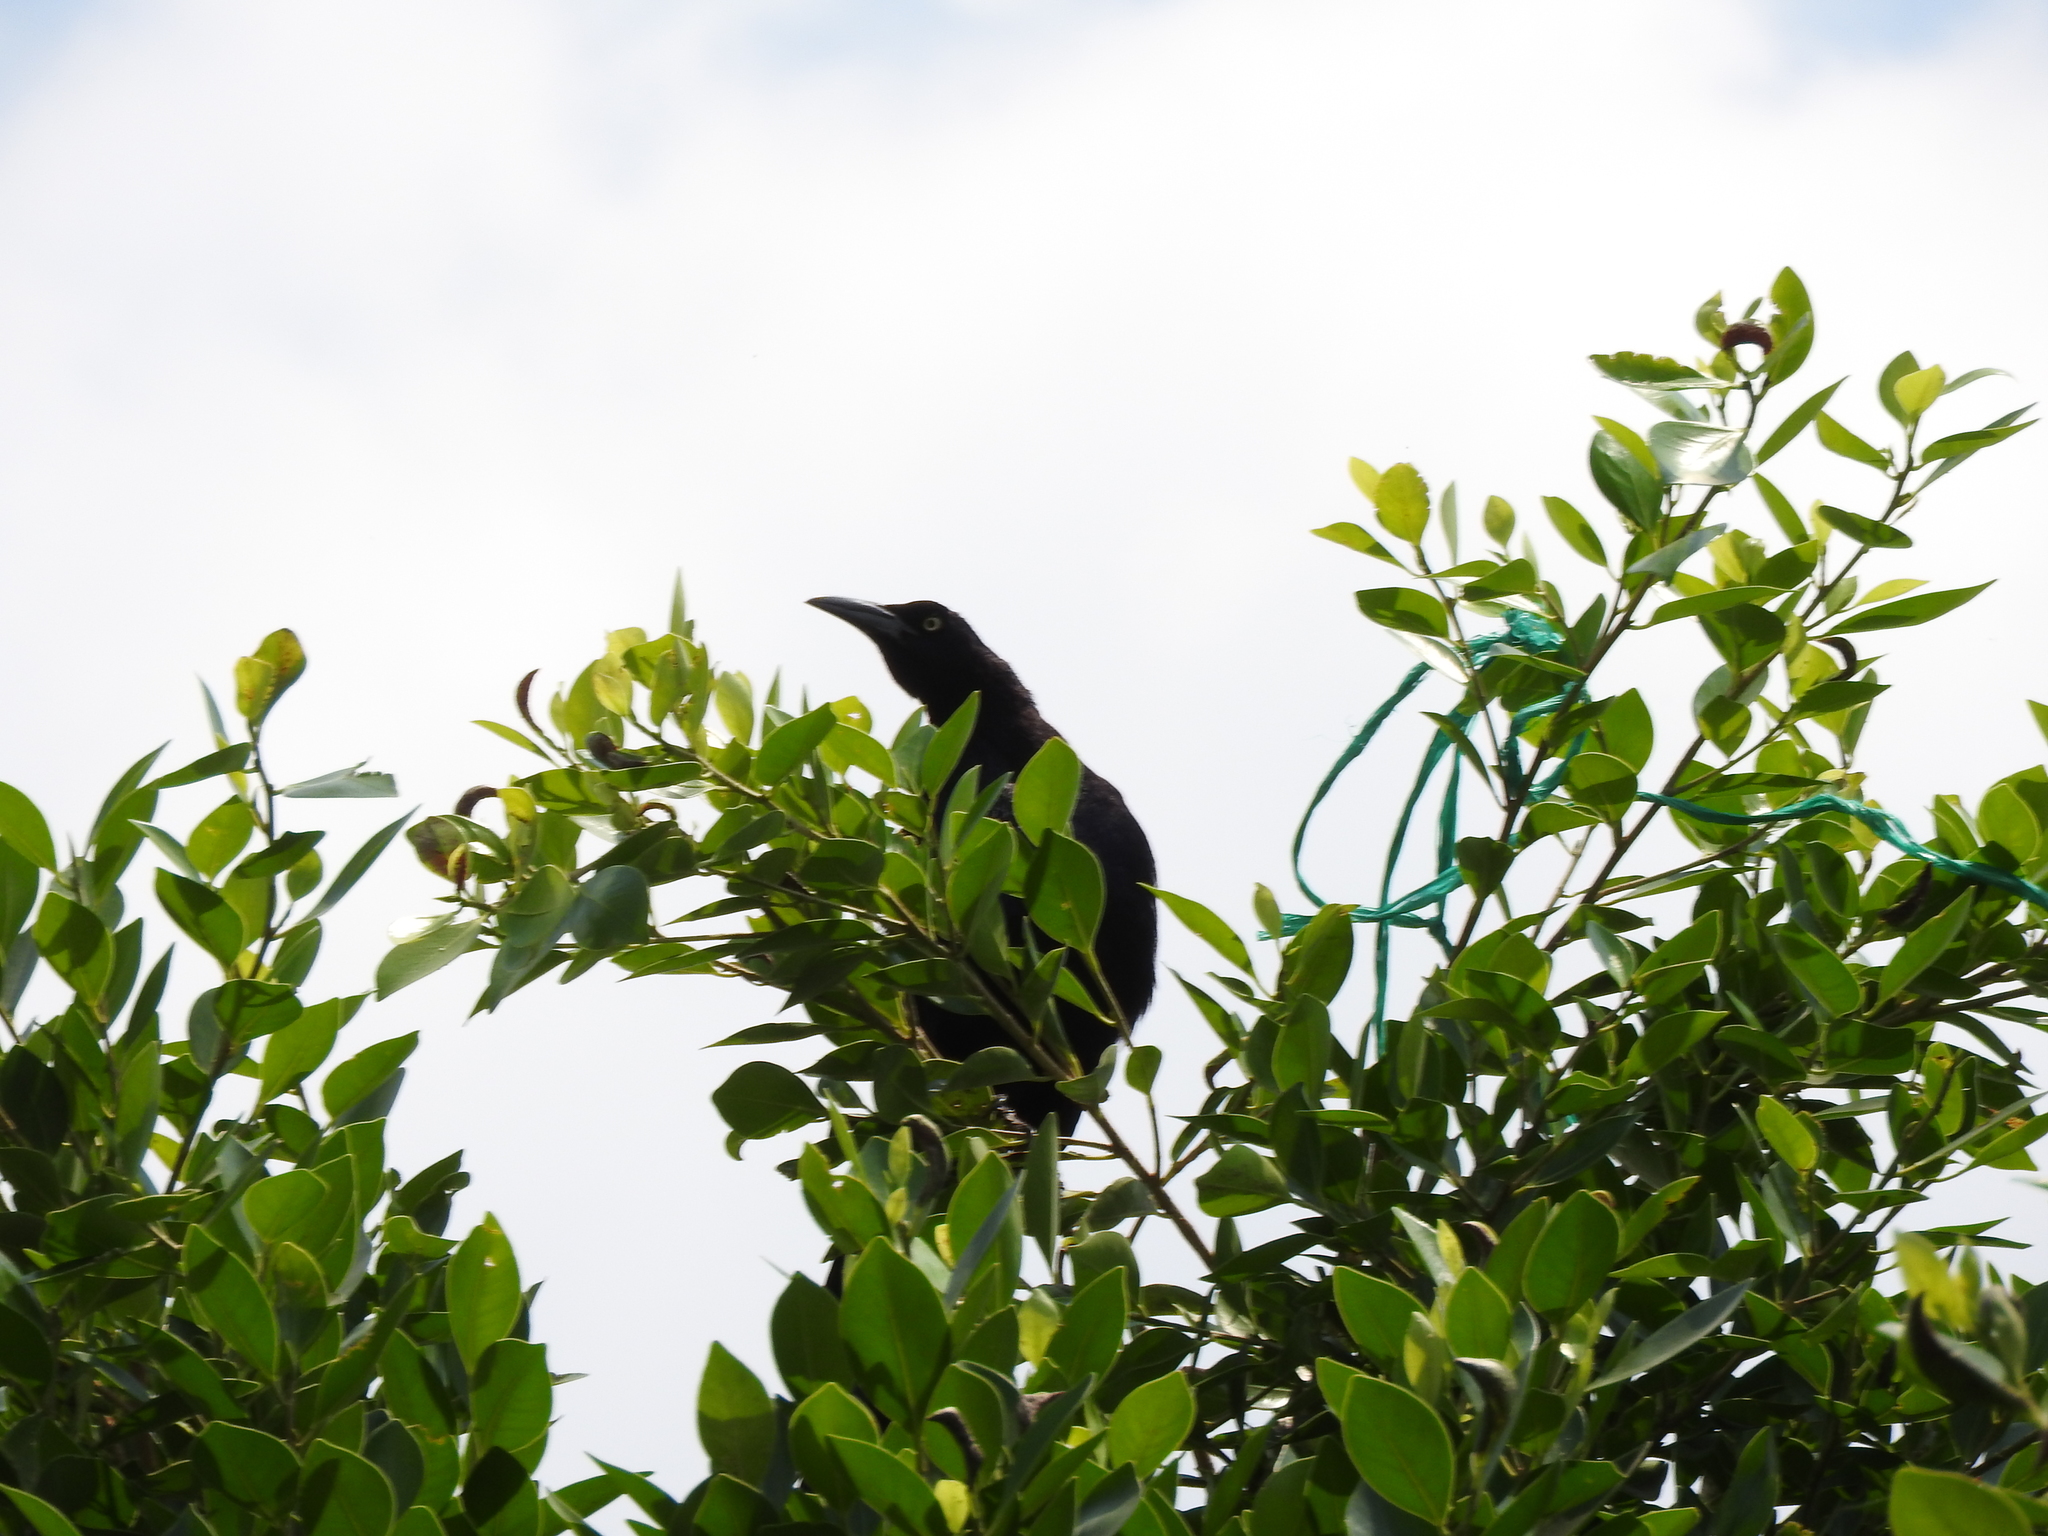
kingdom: Animalia
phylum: Chordata
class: Aves
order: Passeriformes
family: Icteridae
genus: Quiscalus
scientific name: Quiscalus mexicanus
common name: Great-tailed grackle
